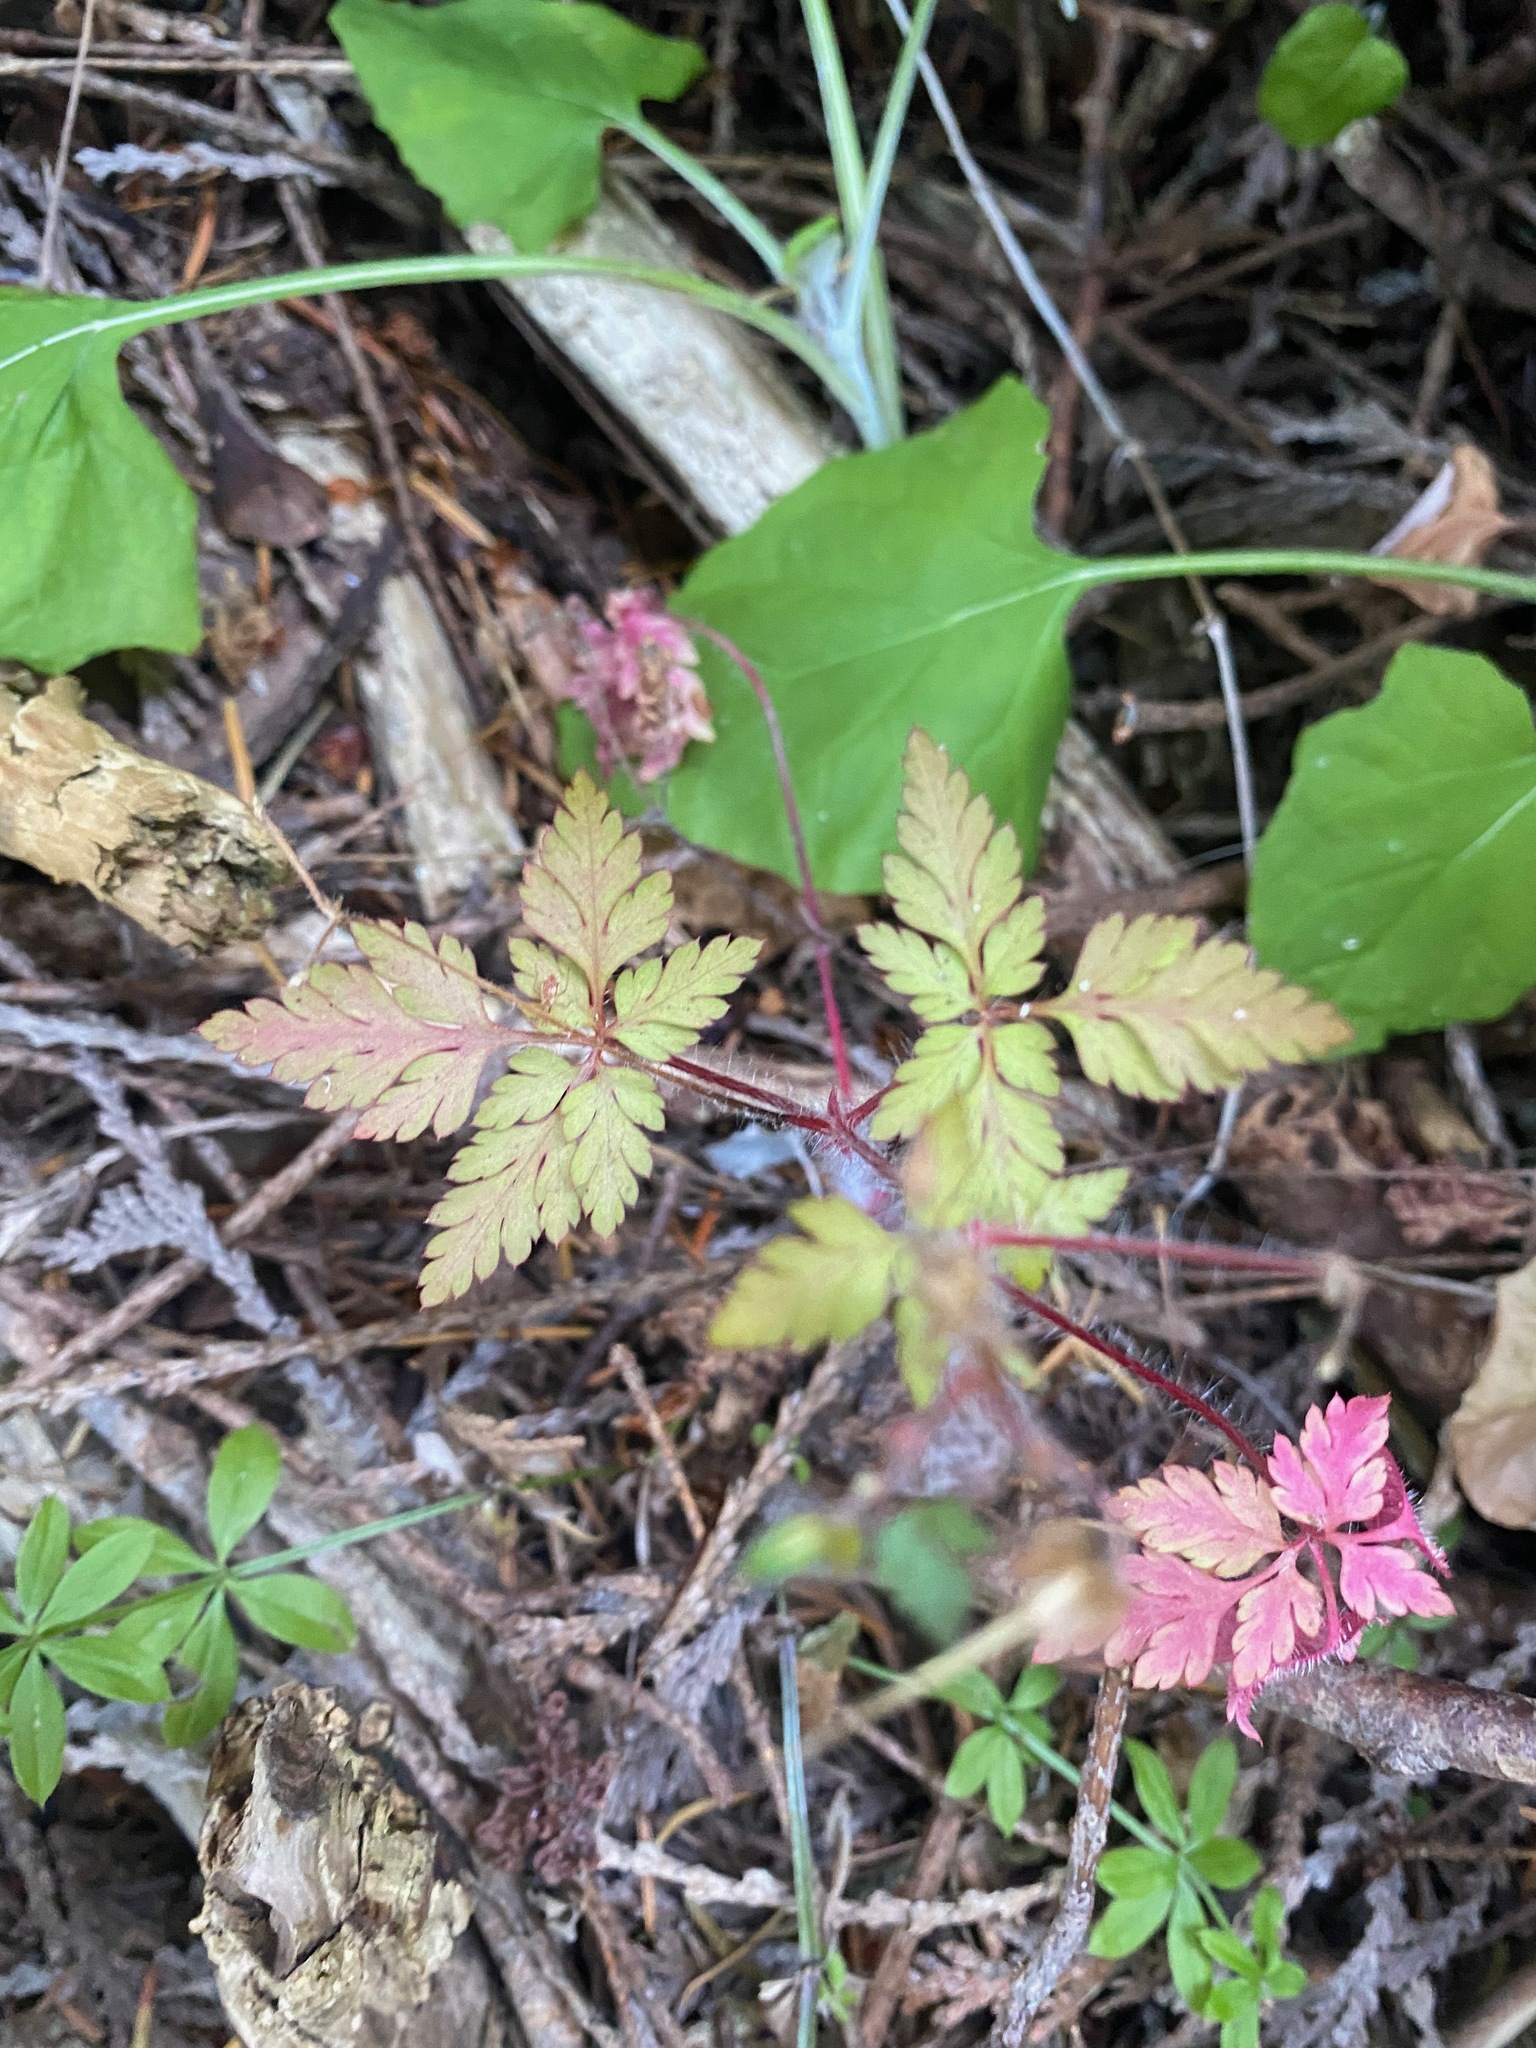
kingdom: Plantae
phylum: Tracheophyta
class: Magnoliopsida
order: Geraniales
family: Geraniaceae
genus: Geranium
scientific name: Geranium robertianum
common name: Herb-robert
